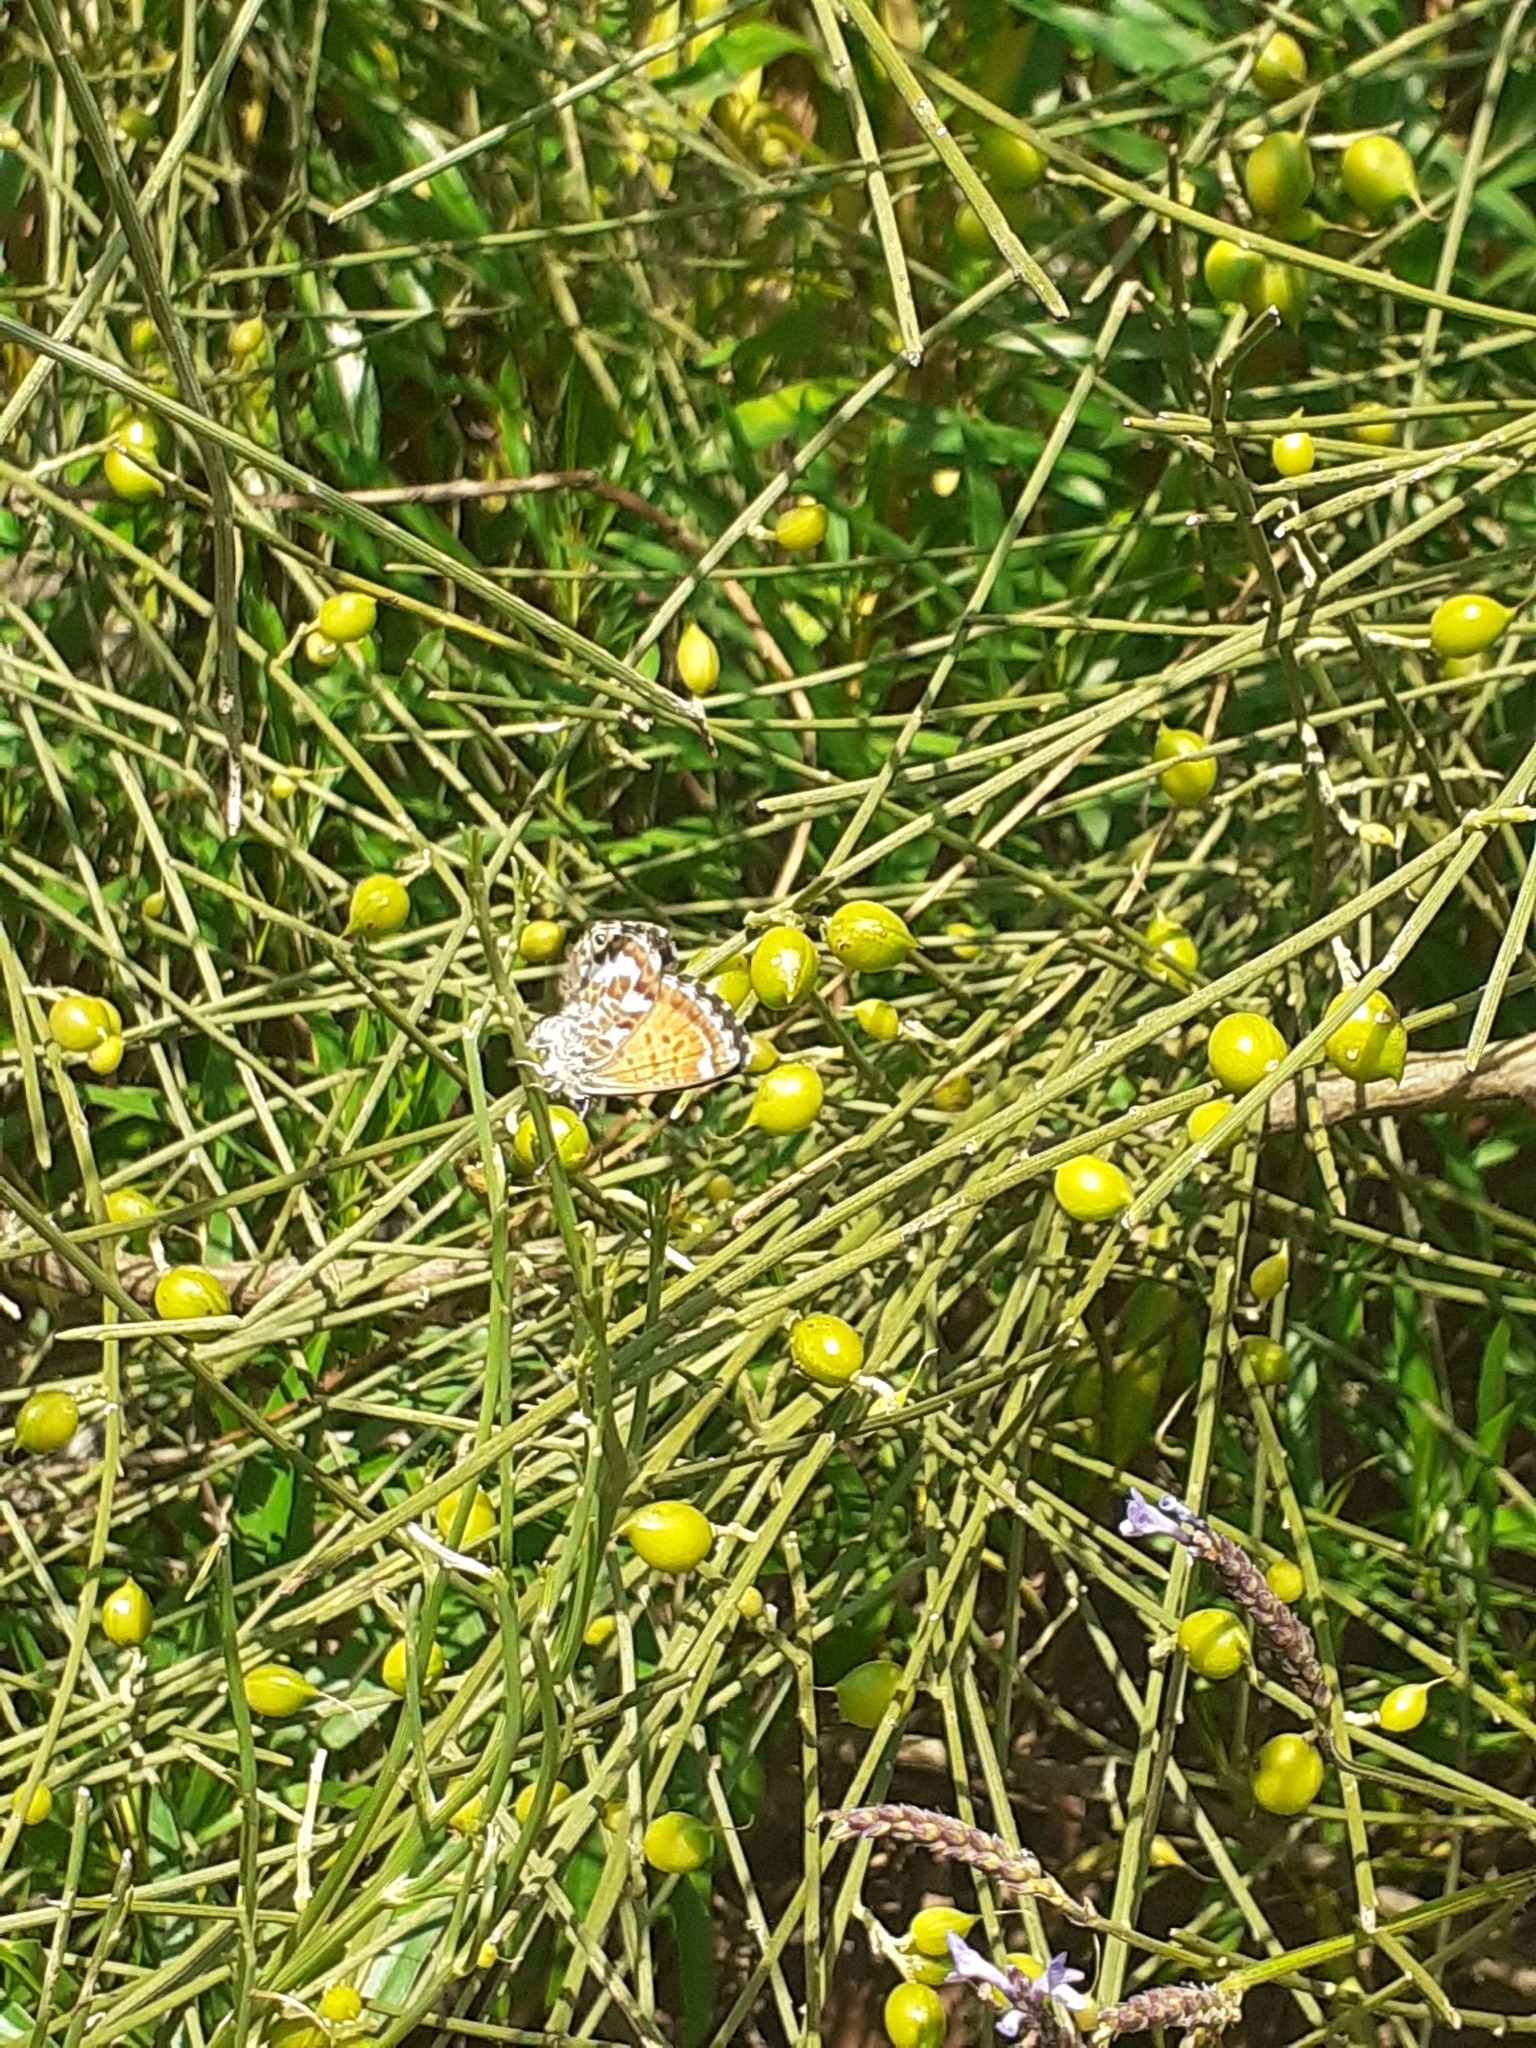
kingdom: Animalia
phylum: Arthropoda
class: Insecta
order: Lepidoptera
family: Lycaenidae
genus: Cyclyrius
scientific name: Cyclyrius webbianus
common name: Canary blue
